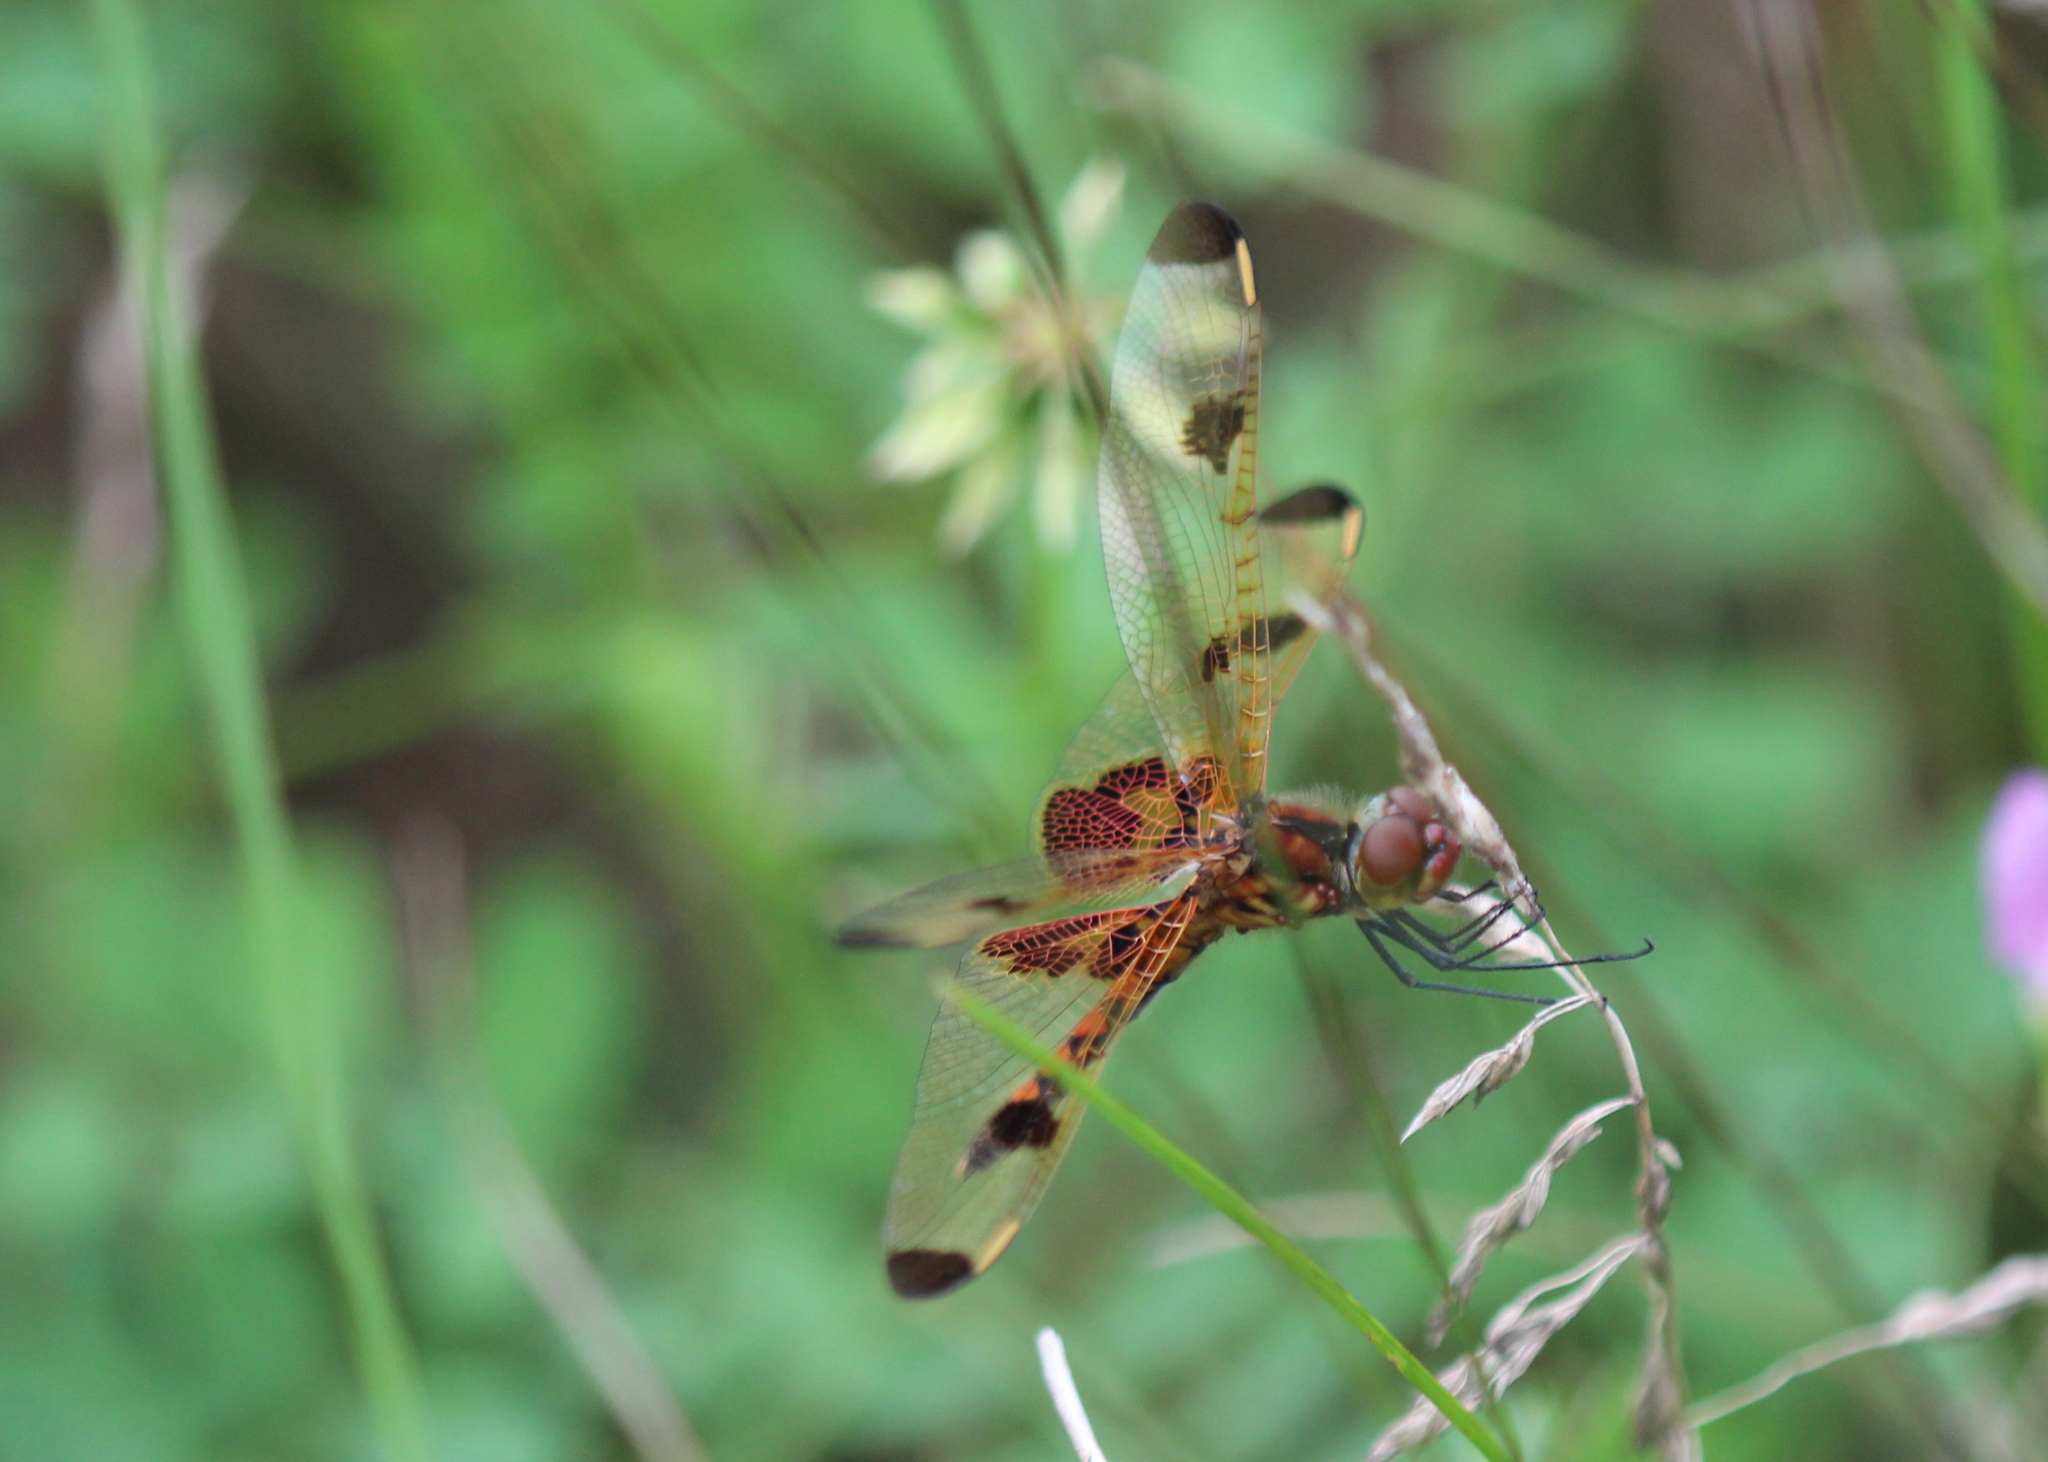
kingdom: Animalia
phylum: Arthropoda
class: Insecta
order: Odonata
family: Libellulidae
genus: Celithemis
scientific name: Celithemis elisa
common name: Calico pennant
